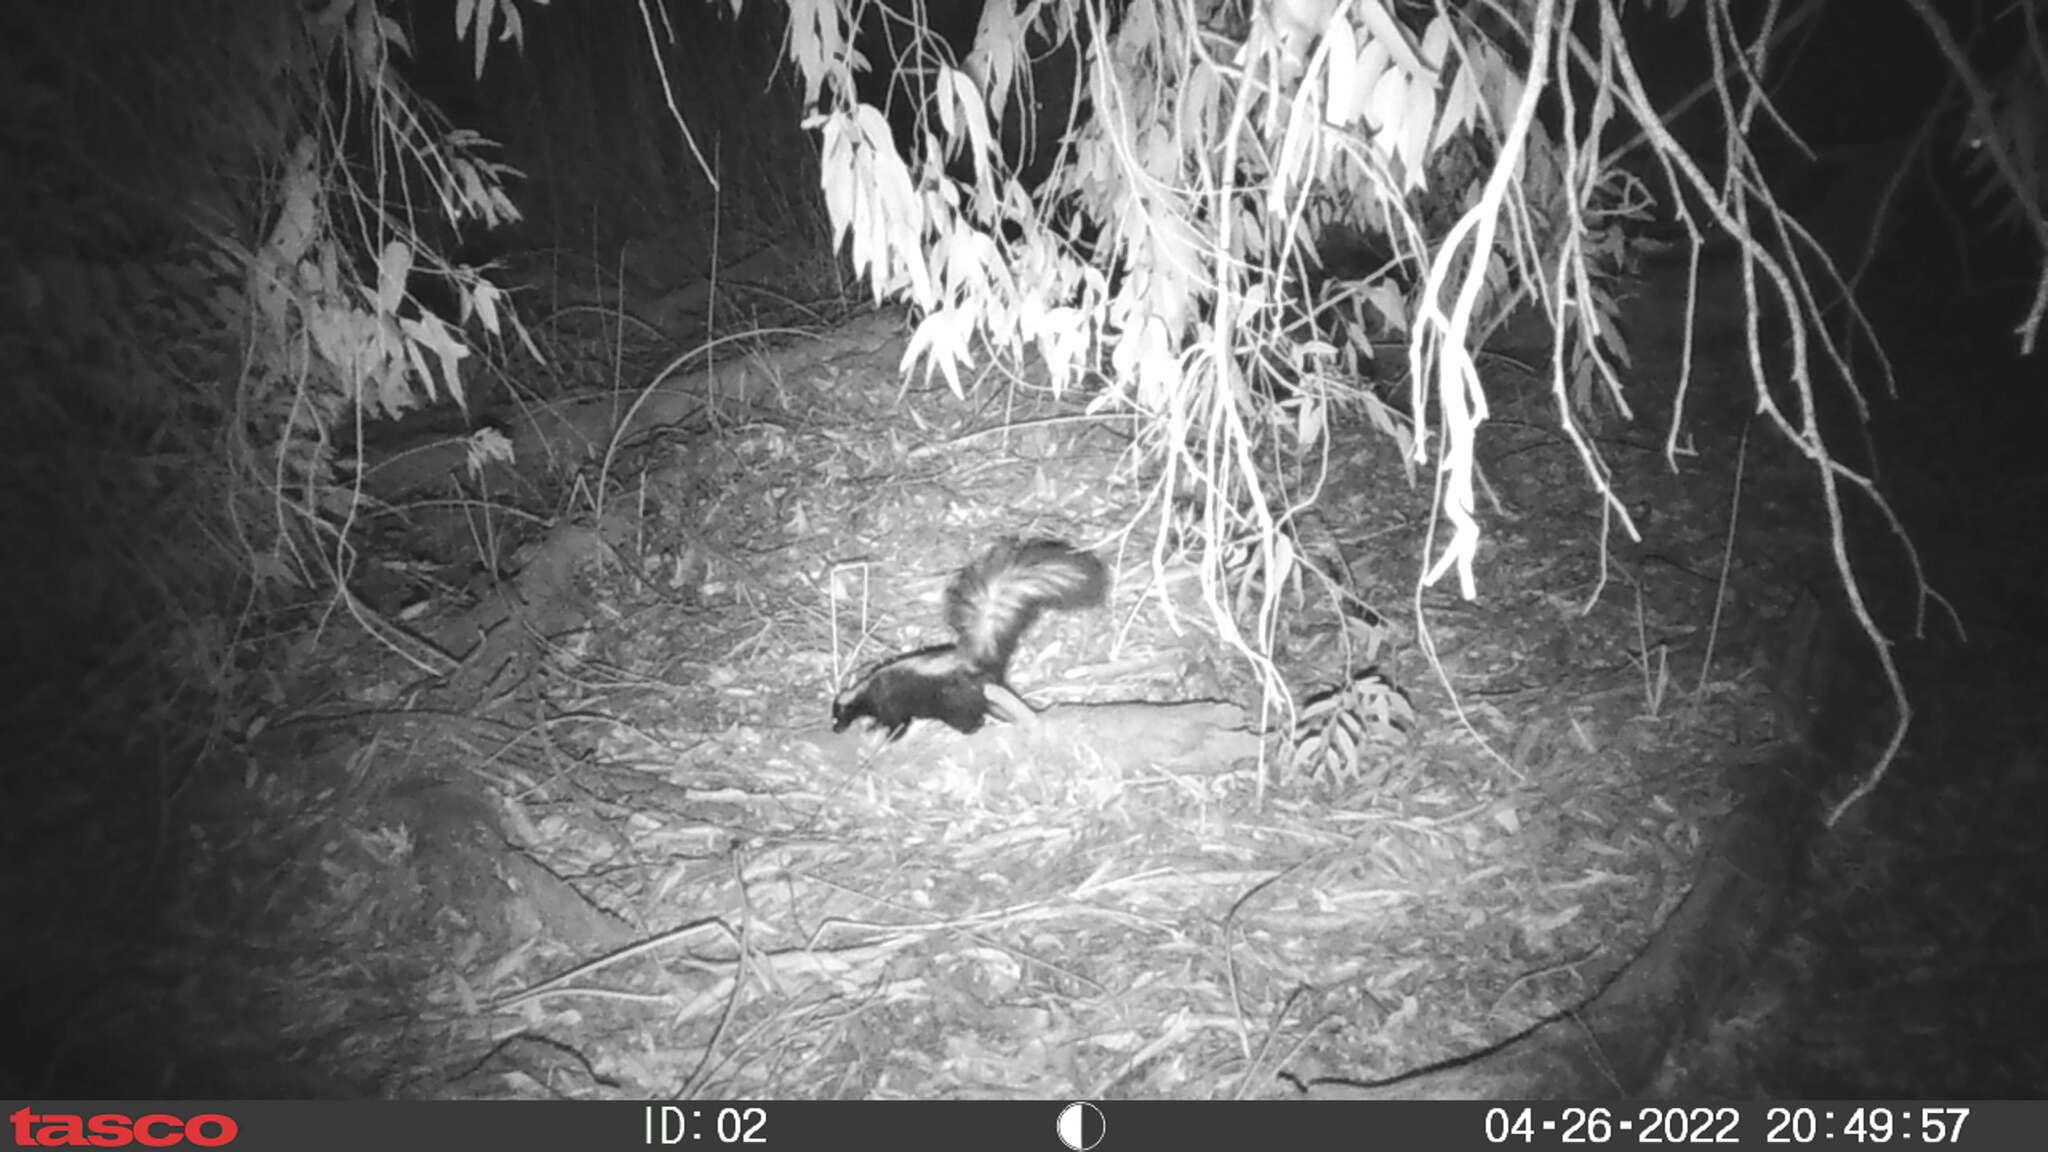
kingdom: Animalia
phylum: Chordata
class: Mammalia
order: Carnivora
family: Mephitidae
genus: Mephitis
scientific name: Mephitis mephitis
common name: Striped skunk
